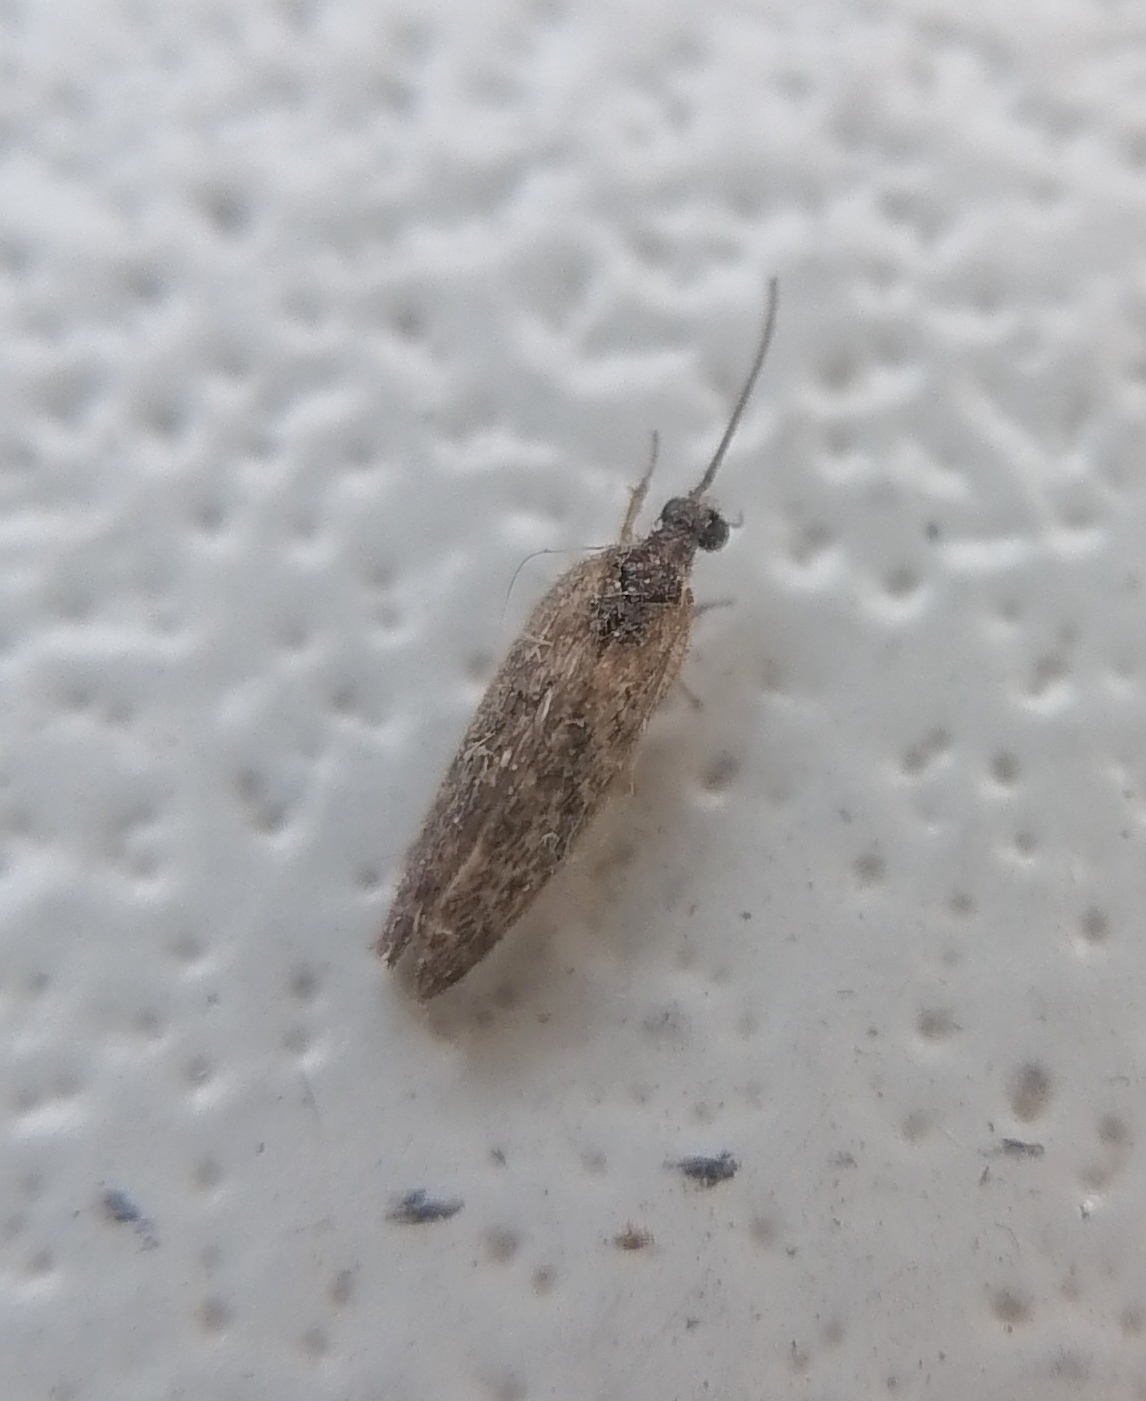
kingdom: Animalia
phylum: Arthropoda
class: Insecta
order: Neuroptera
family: Hemerobiidae
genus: Sympherobius
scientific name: Sympherobius pygmaeus
